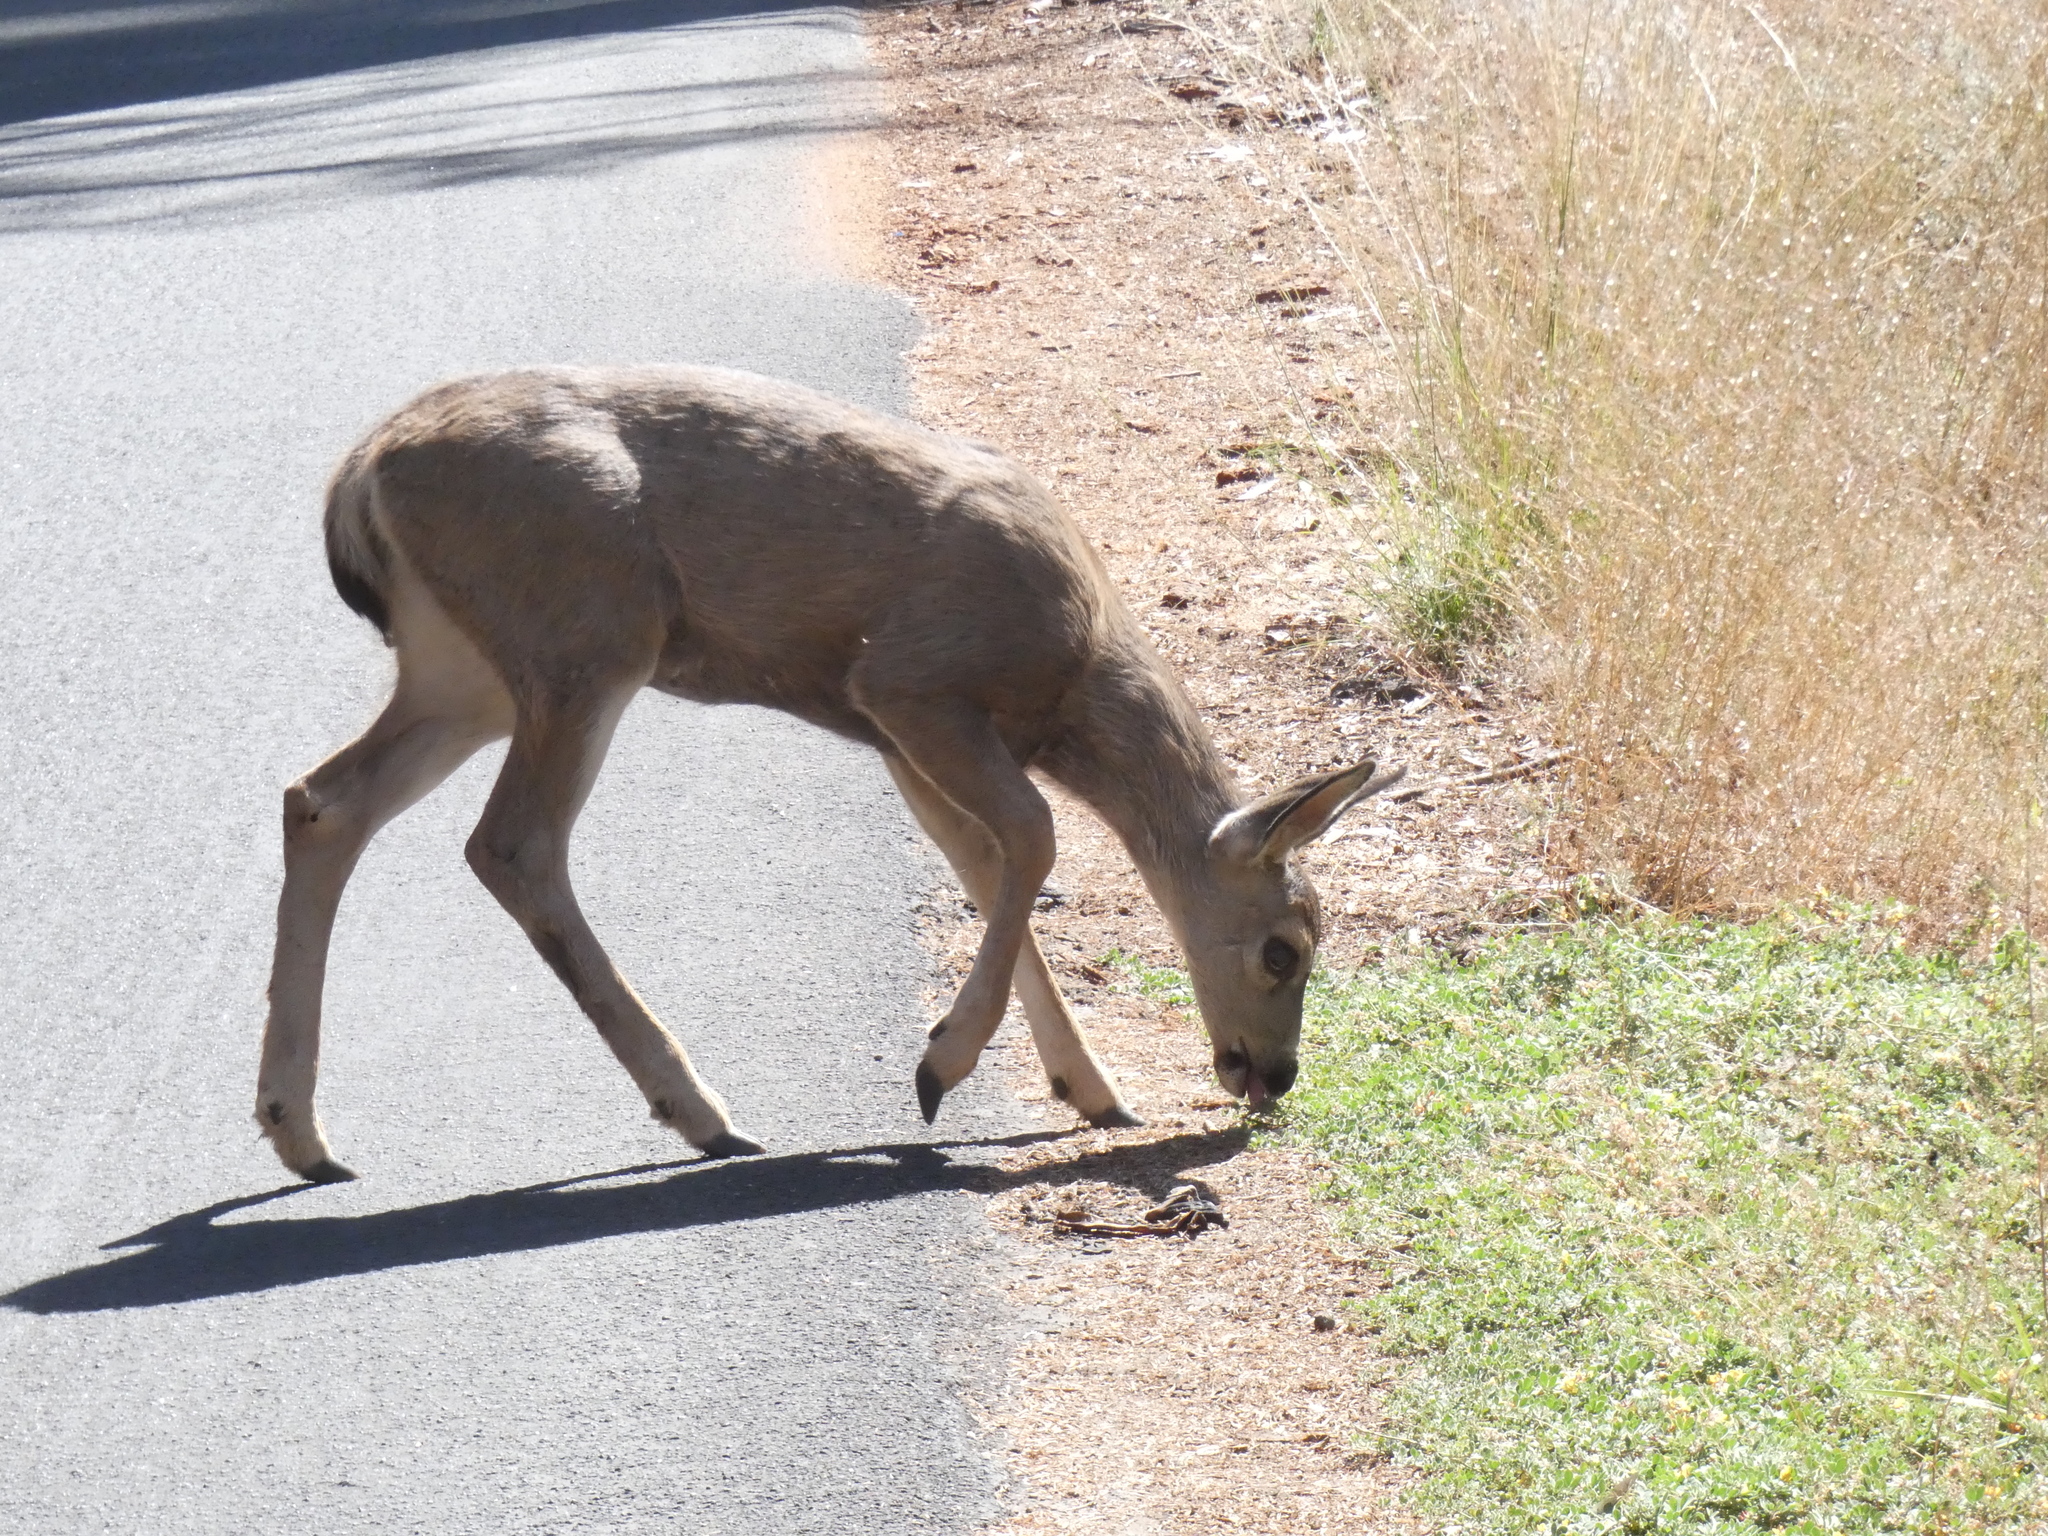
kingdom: Animalia
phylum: Chordata
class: Mammalia
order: Artiodactyla
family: Cervidae
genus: Odocoileus
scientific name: Odocoileus hemionus
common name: Mule deer
